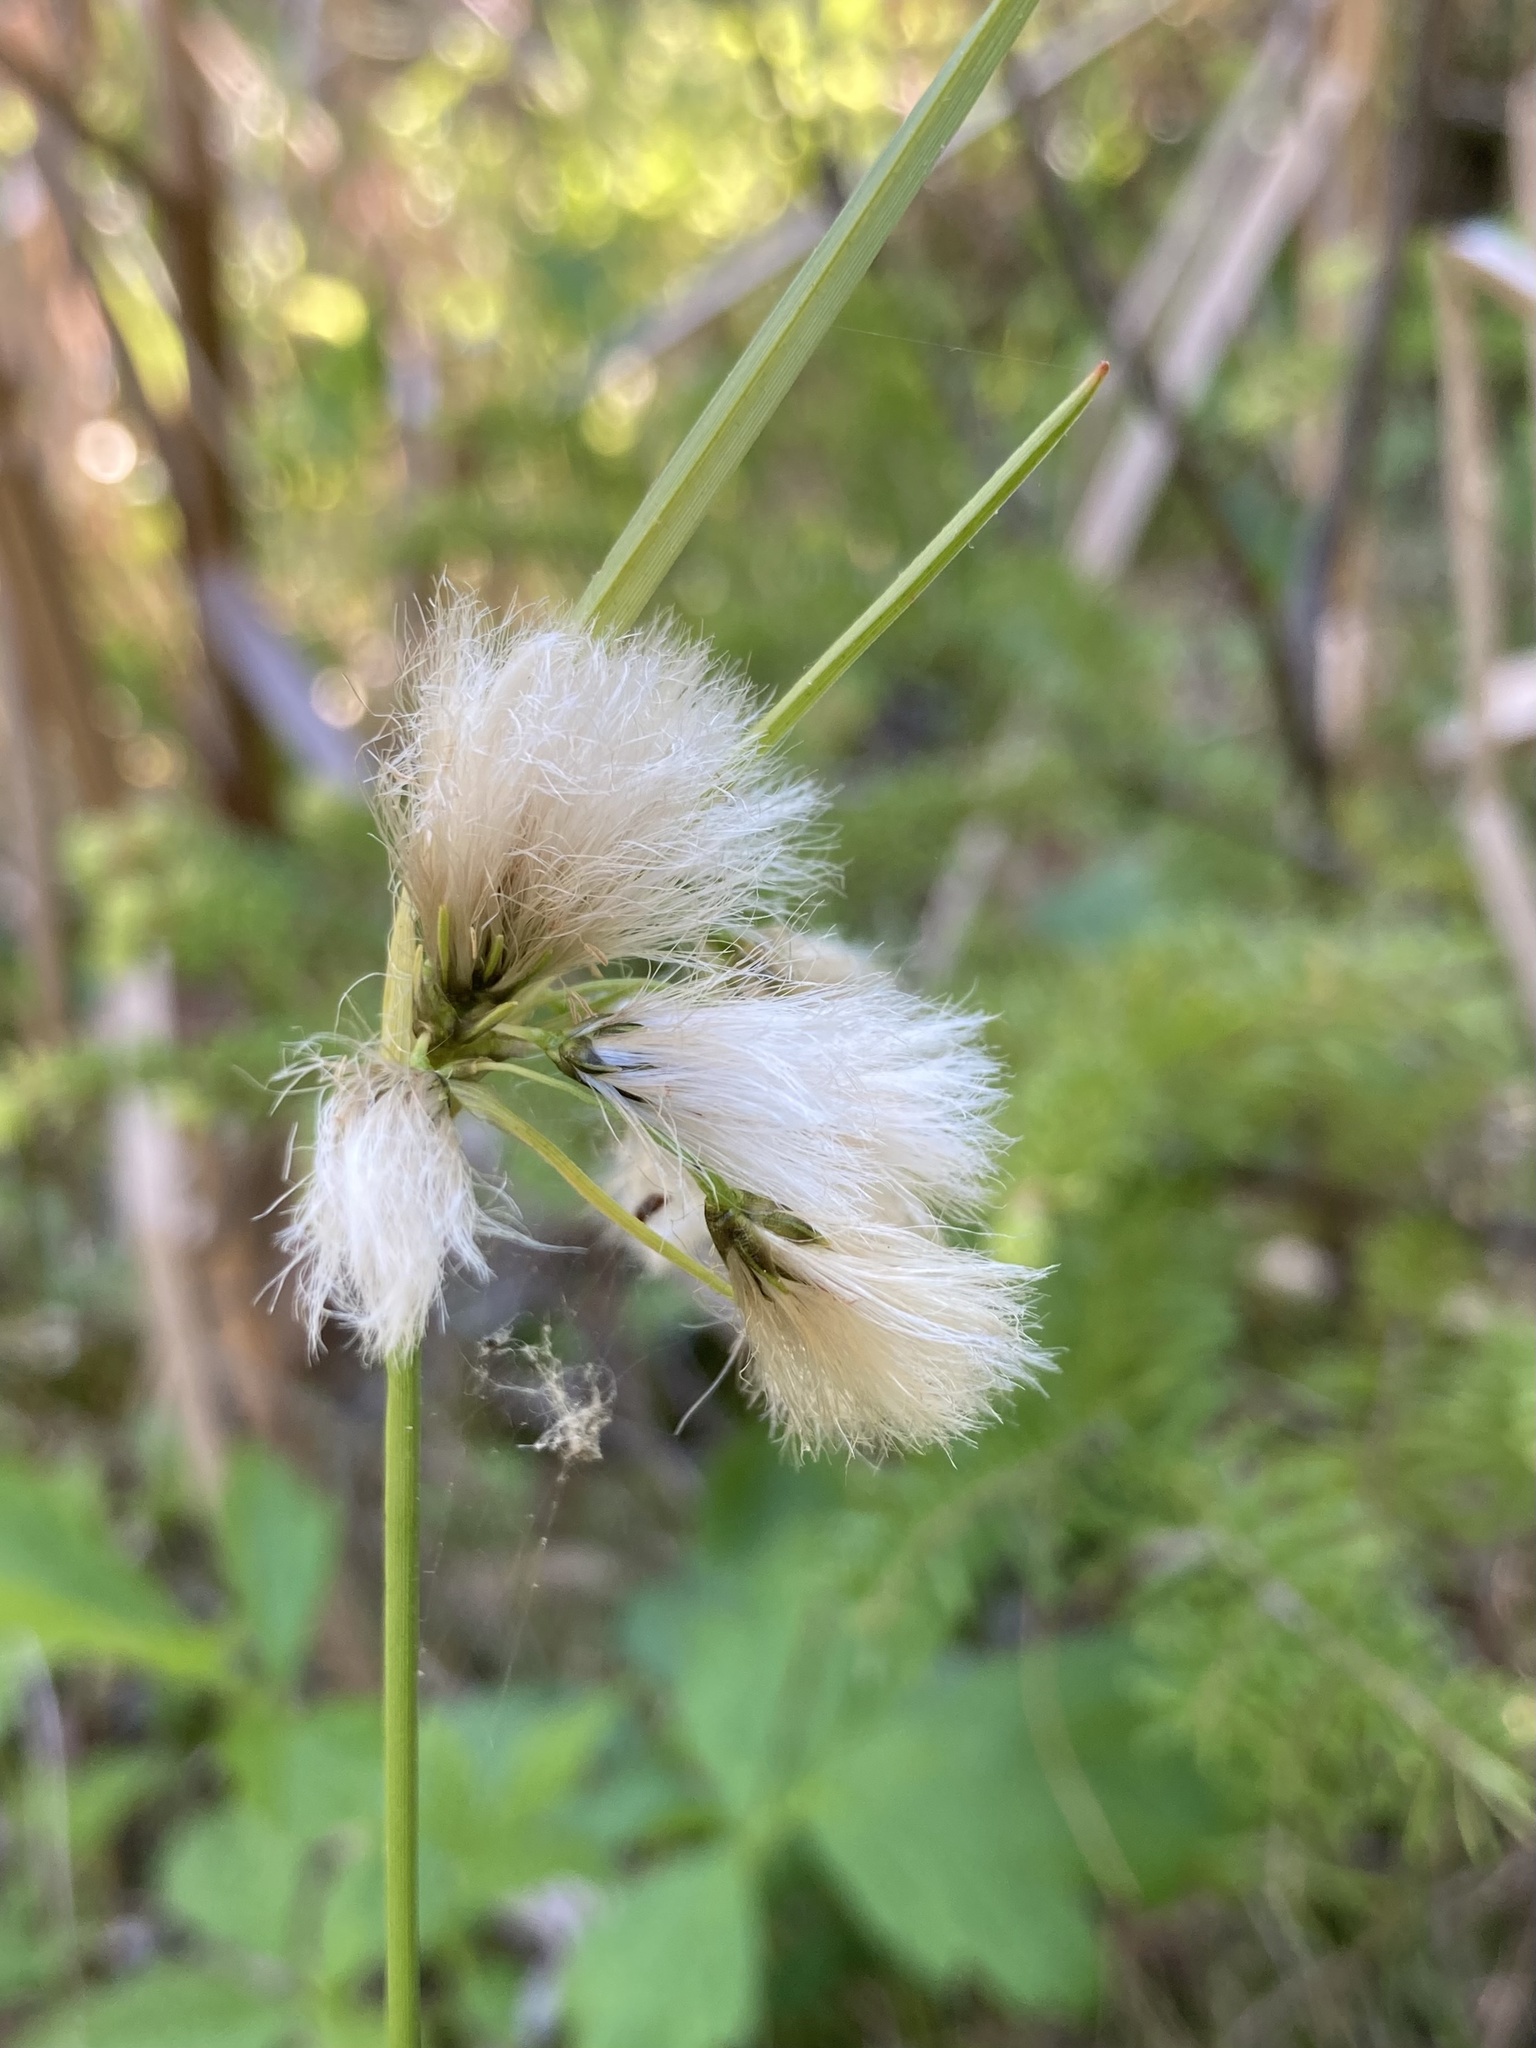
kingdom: Plantae
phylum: Tracheophyta
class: Liliopsida
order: Poales
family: Cyperaceae
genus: Eriophorum
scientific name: Eriophorum viridicarinatum
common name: Green-keeled cottongrass
